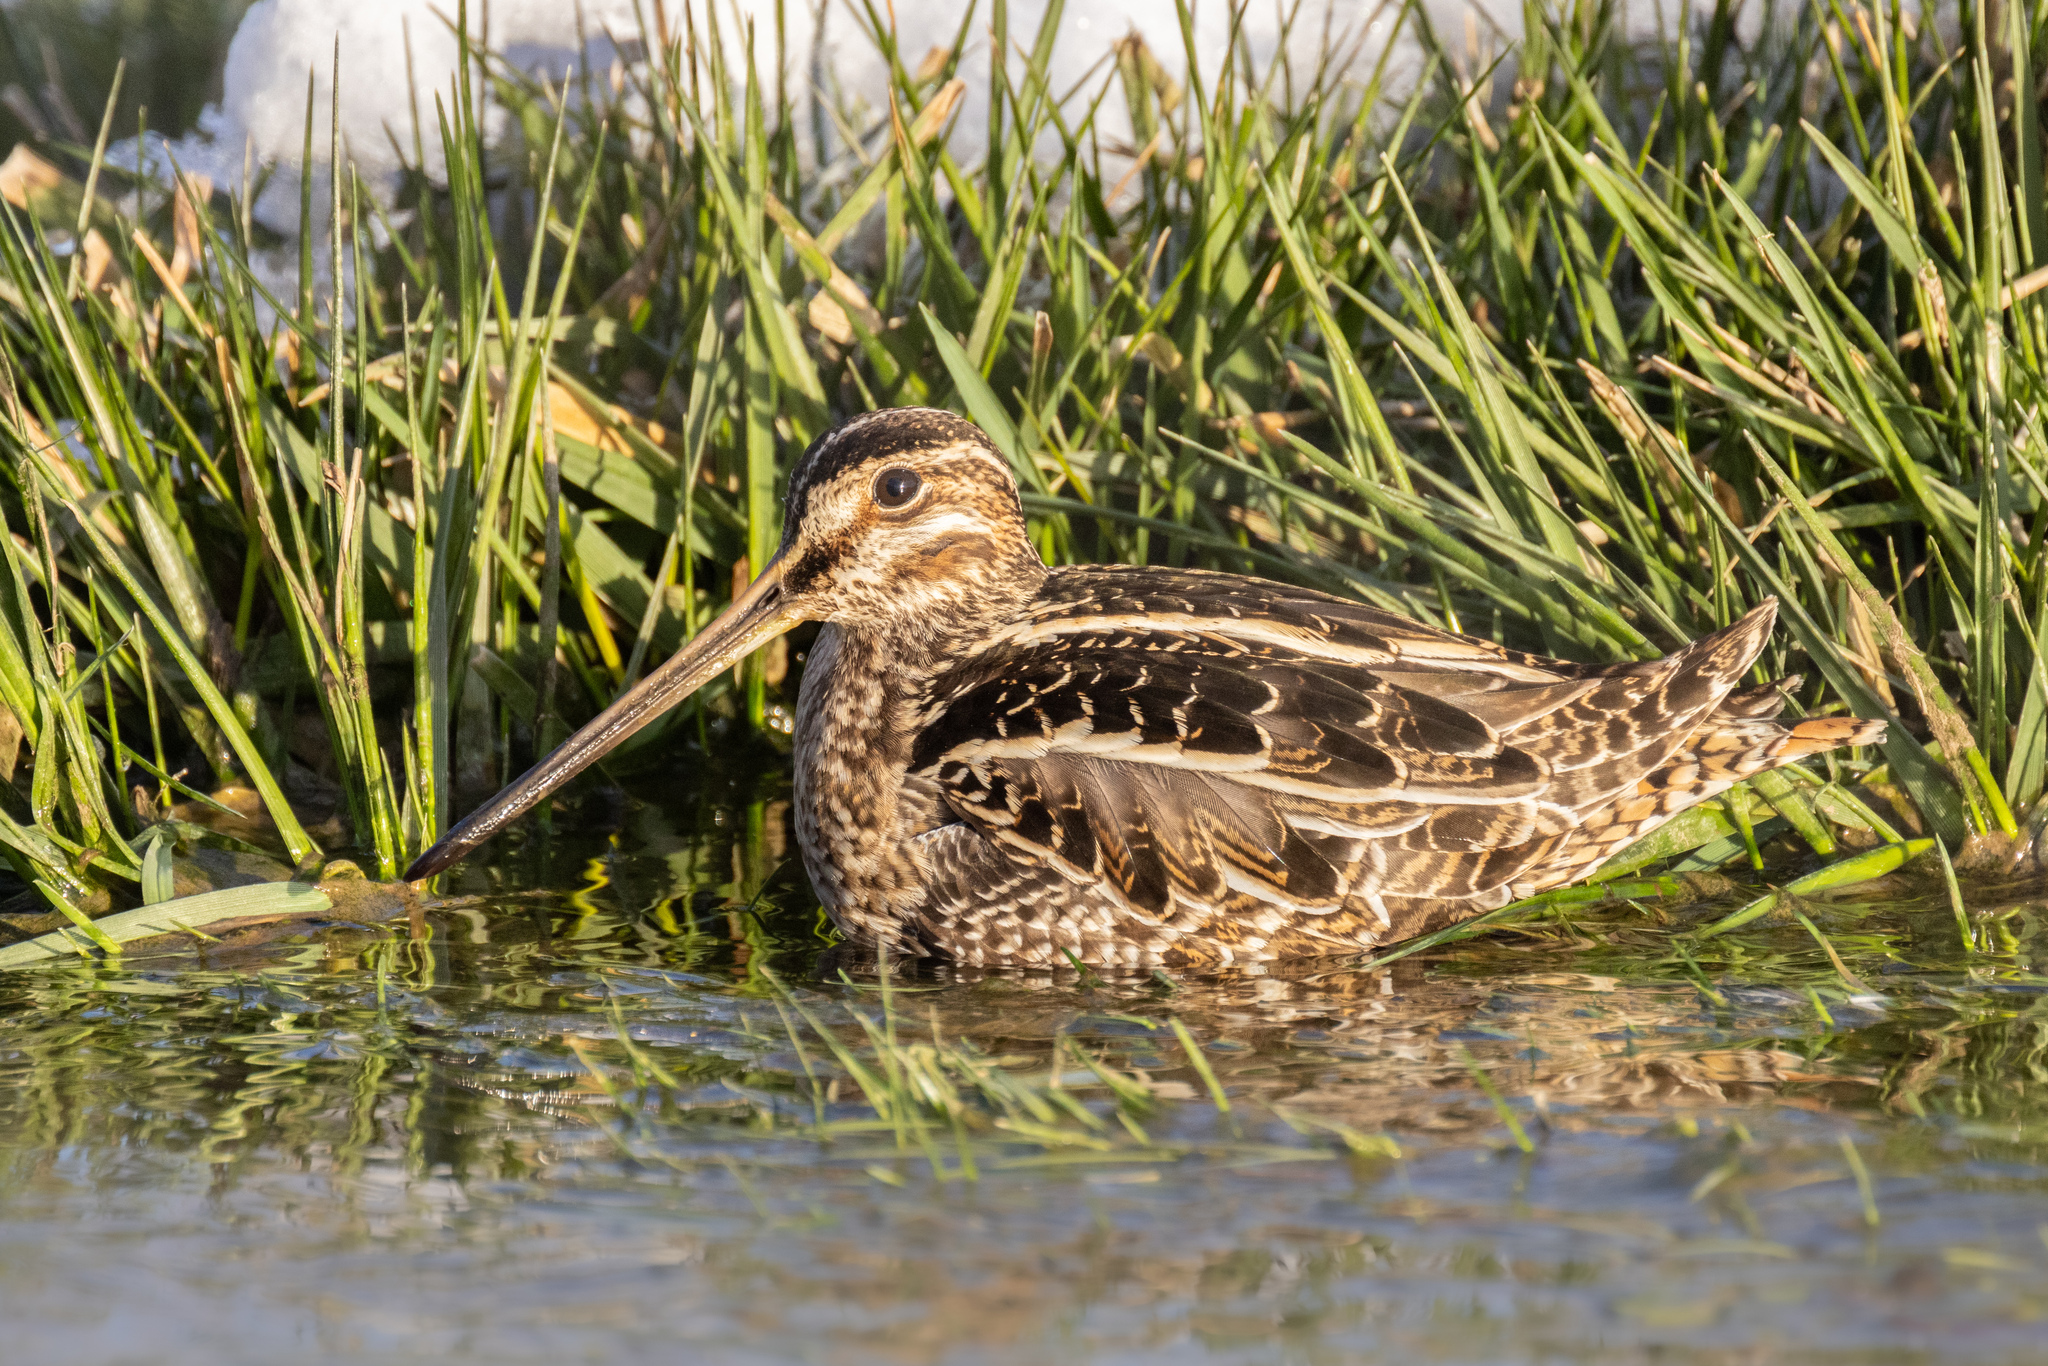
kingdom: Animalia
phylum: Chordata
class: Aves
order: Charadriiformes
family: Scolopacidae
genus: Gallinago
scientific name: Gallinago delicata
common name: Wilson's snipe
